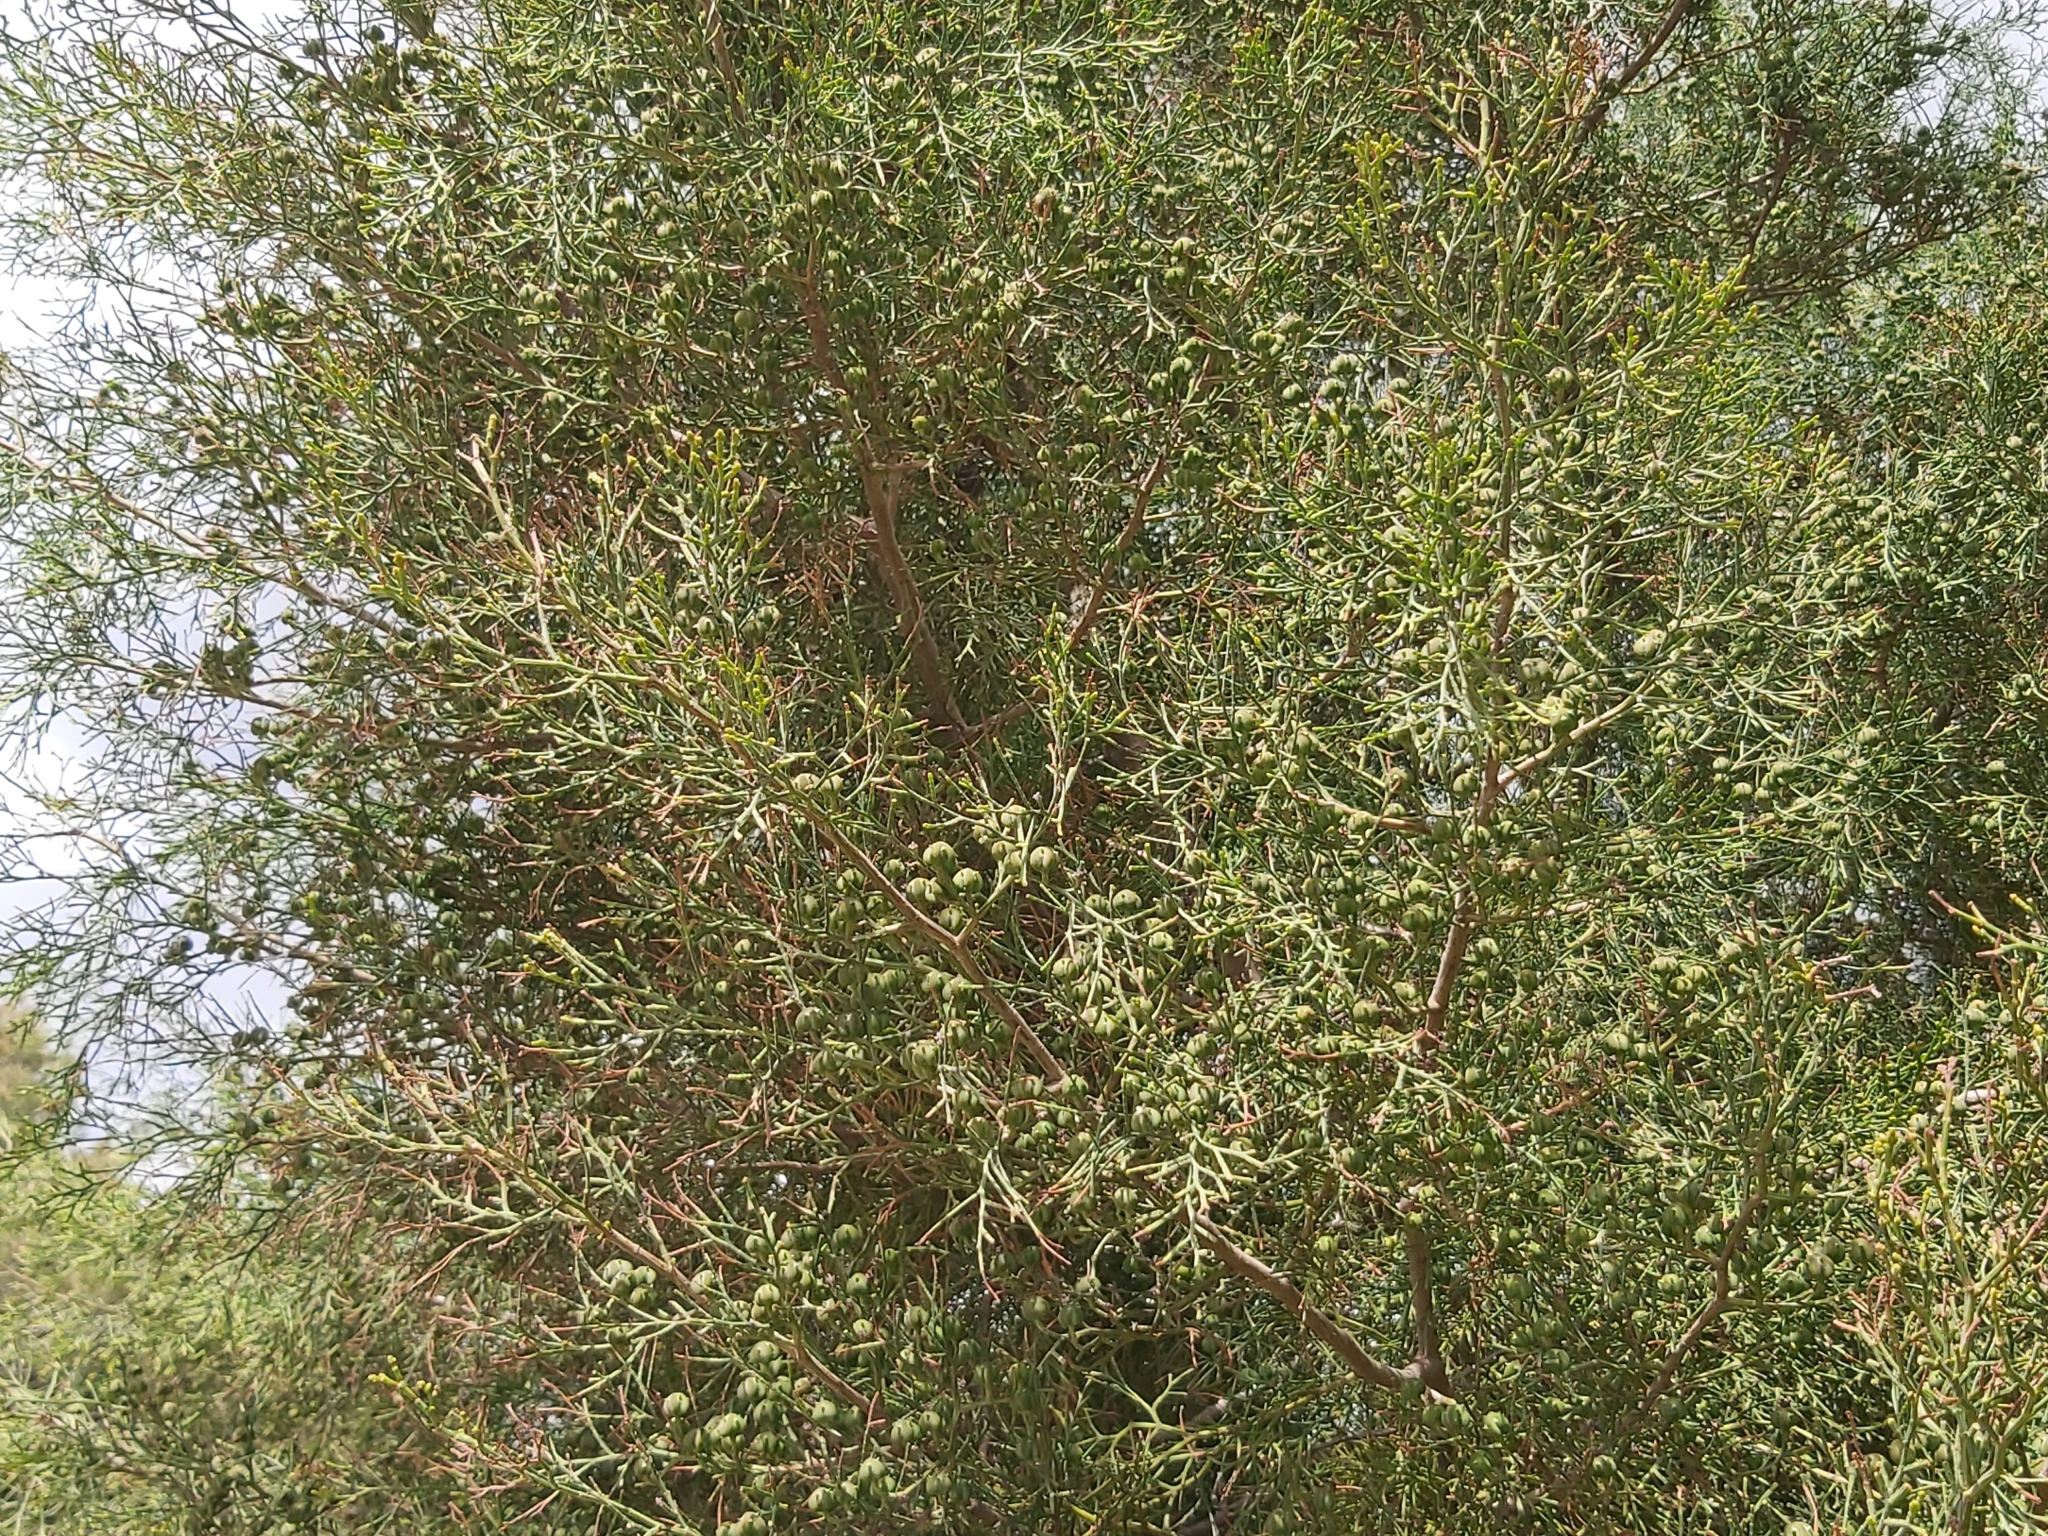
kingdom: Plantae
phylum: Tracheophyta
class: Pinopsida
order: Pinales
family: Cupressaceae
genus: Tetraclinis
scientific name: Tetraclinis articulata
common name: Sandarac
